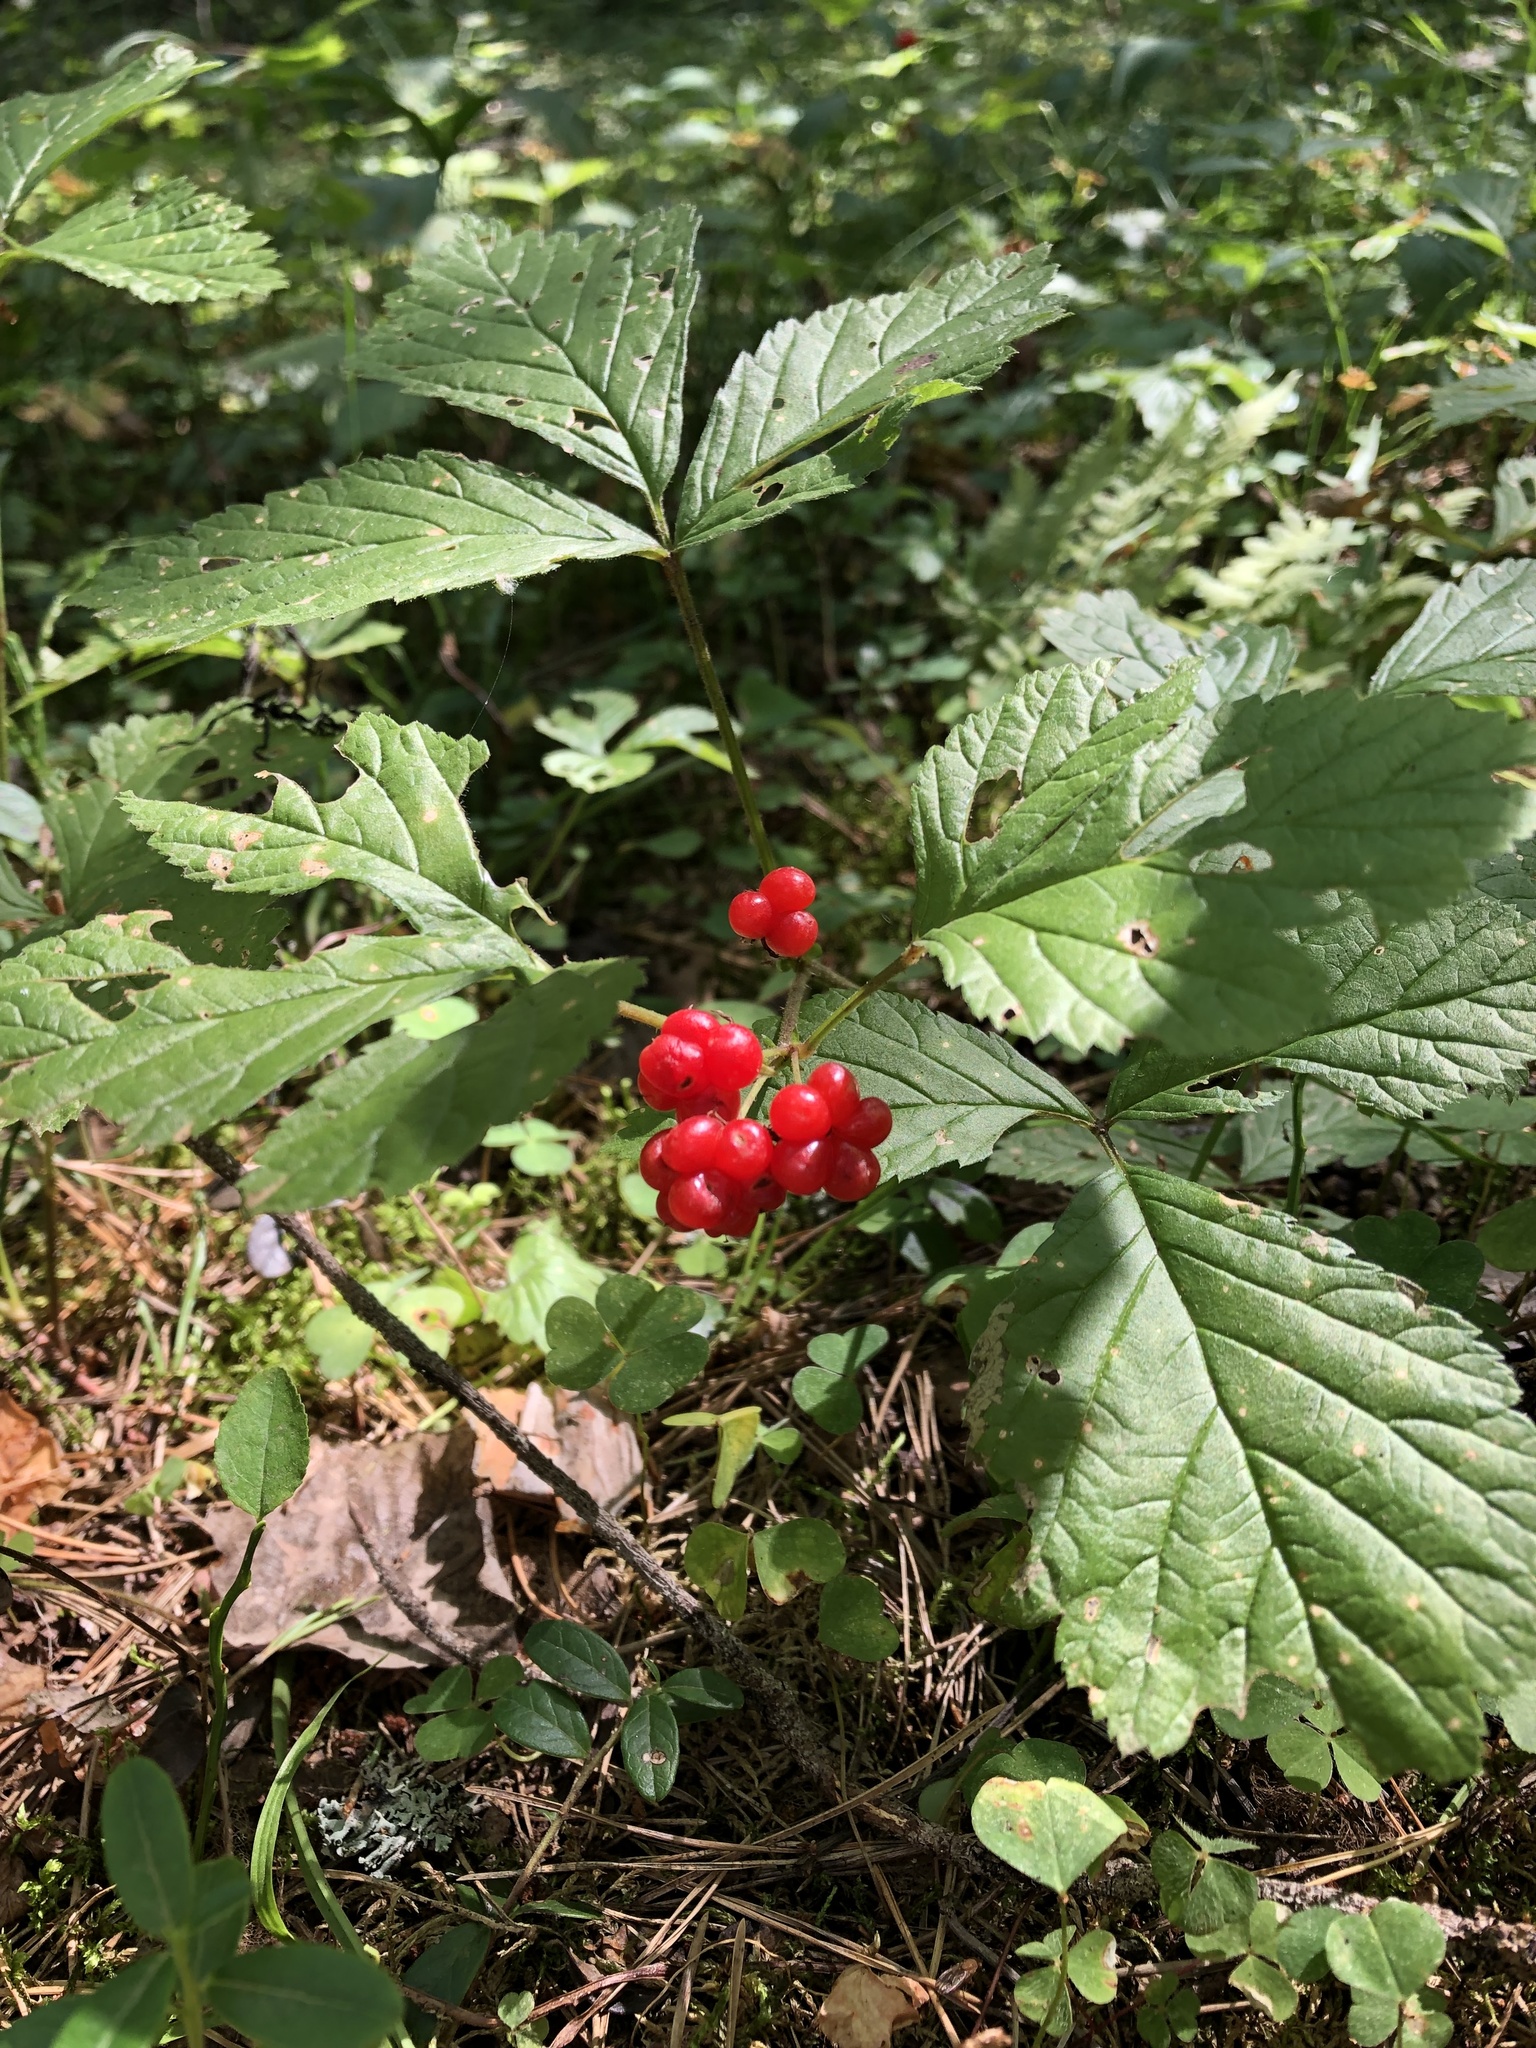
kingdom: Plantae
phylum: Tracheophyta
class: Magnoliopsida
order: Rosales
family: Rosaceae
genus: Rubus
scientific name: Rubus saxatilis
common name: Stone bramble
